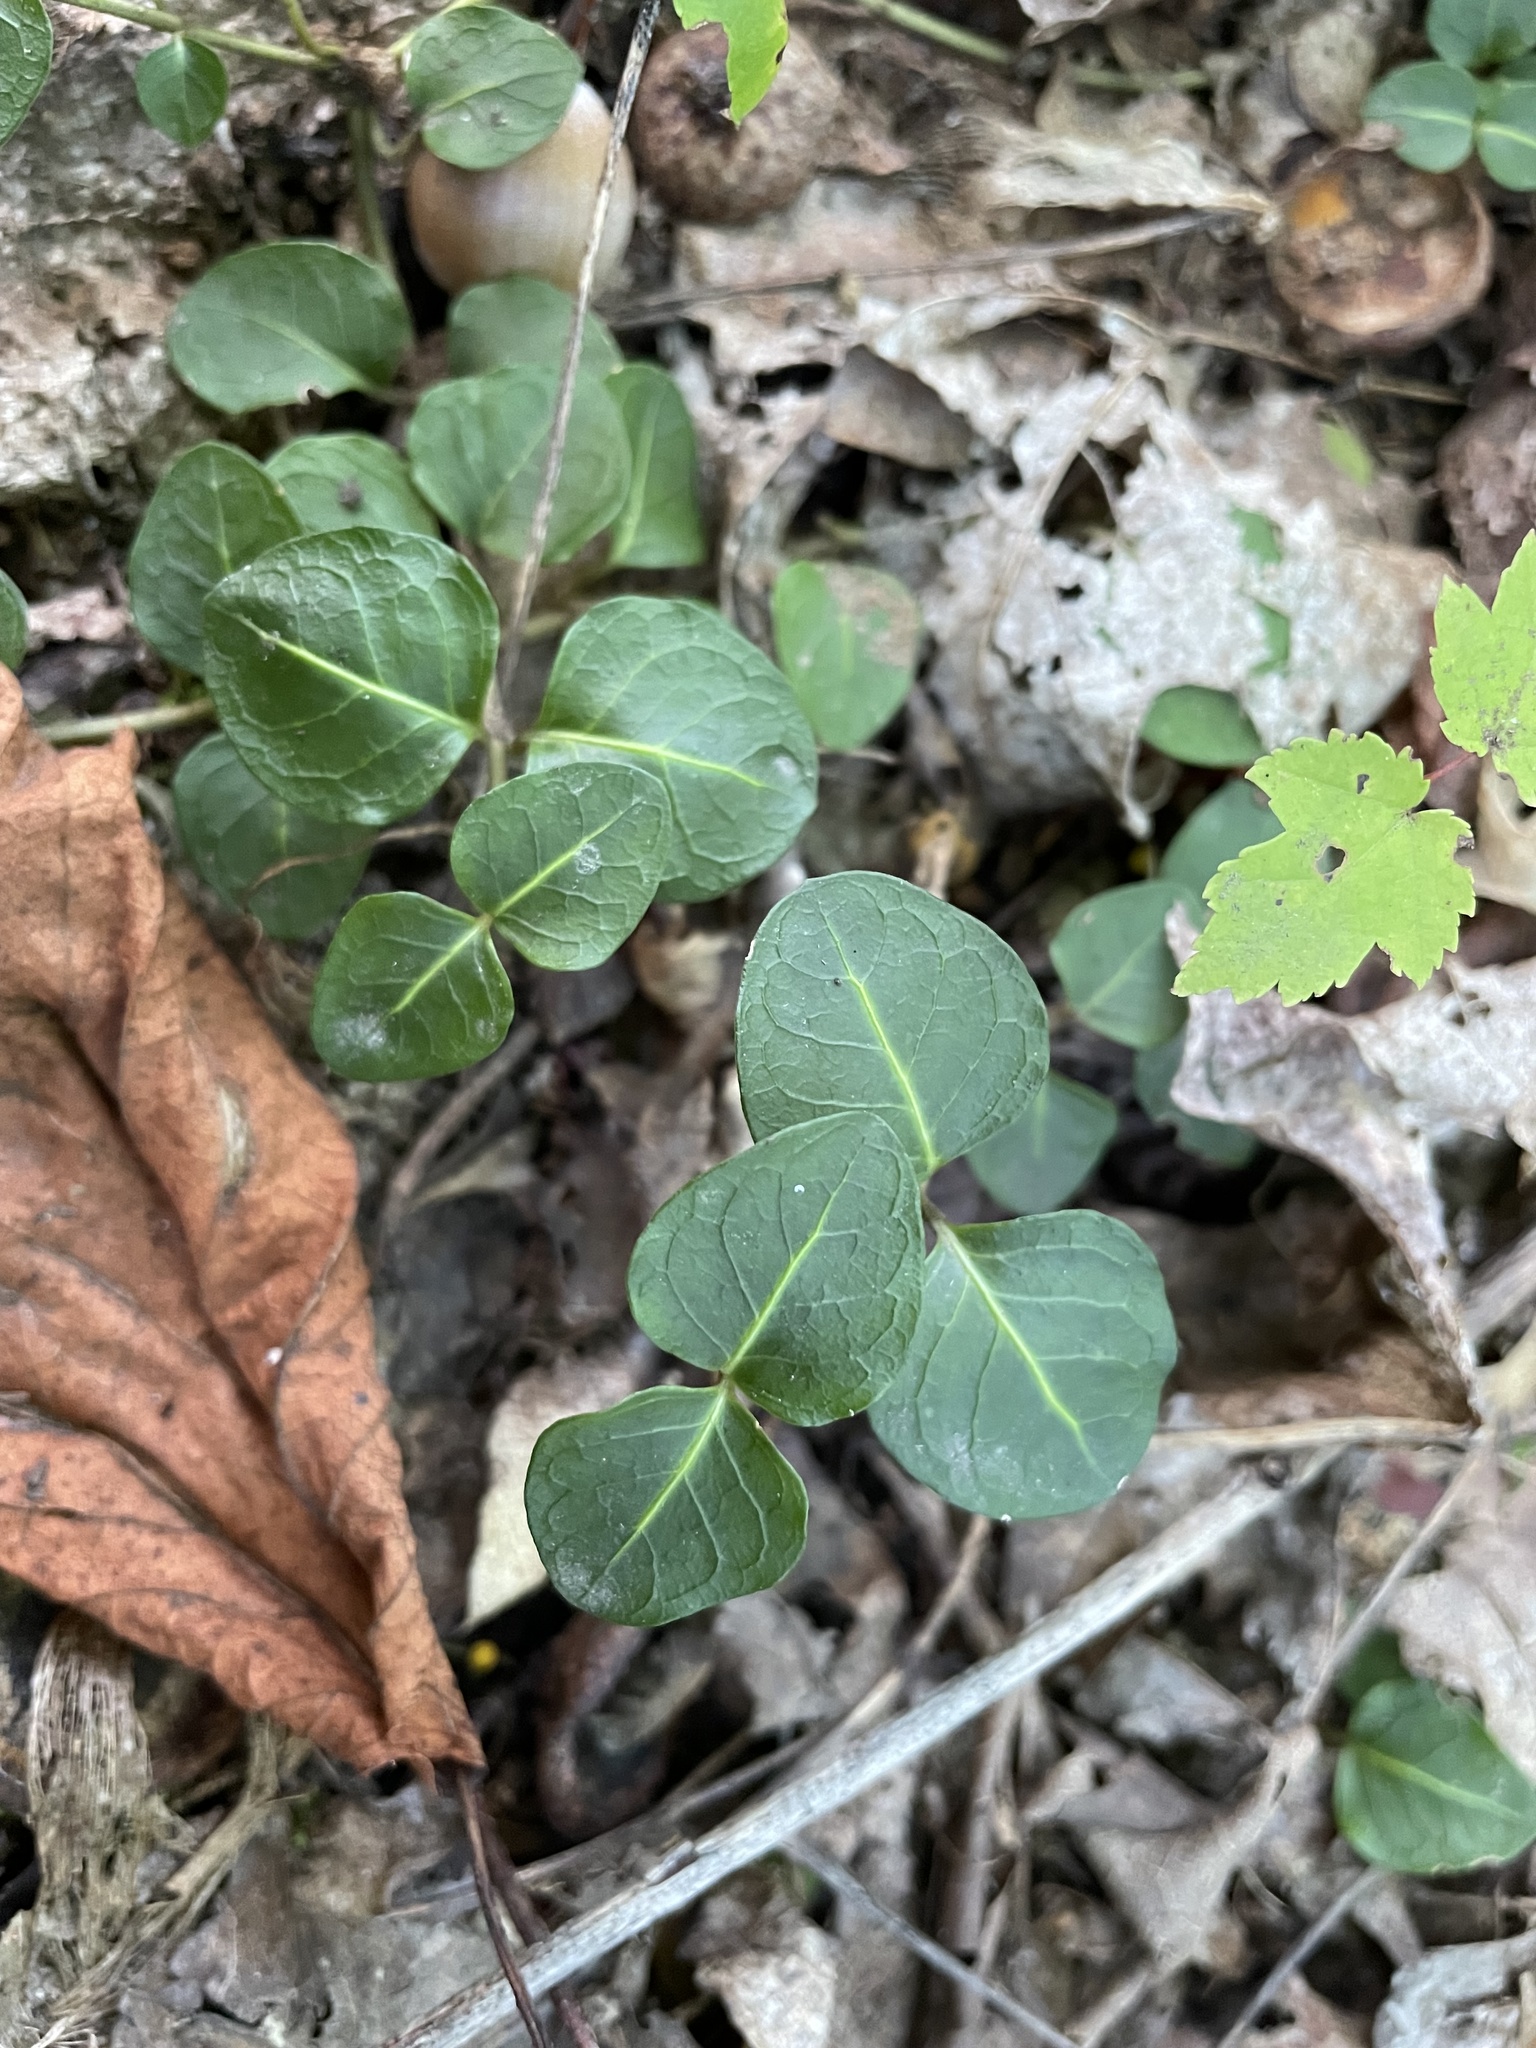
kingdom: Plantae
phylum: Tracheophyta
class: Magnoliopsida
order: Gentianales
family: Rubiaceae
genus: Mitchella
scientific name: Mitchella repens
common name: Partridge-berry
